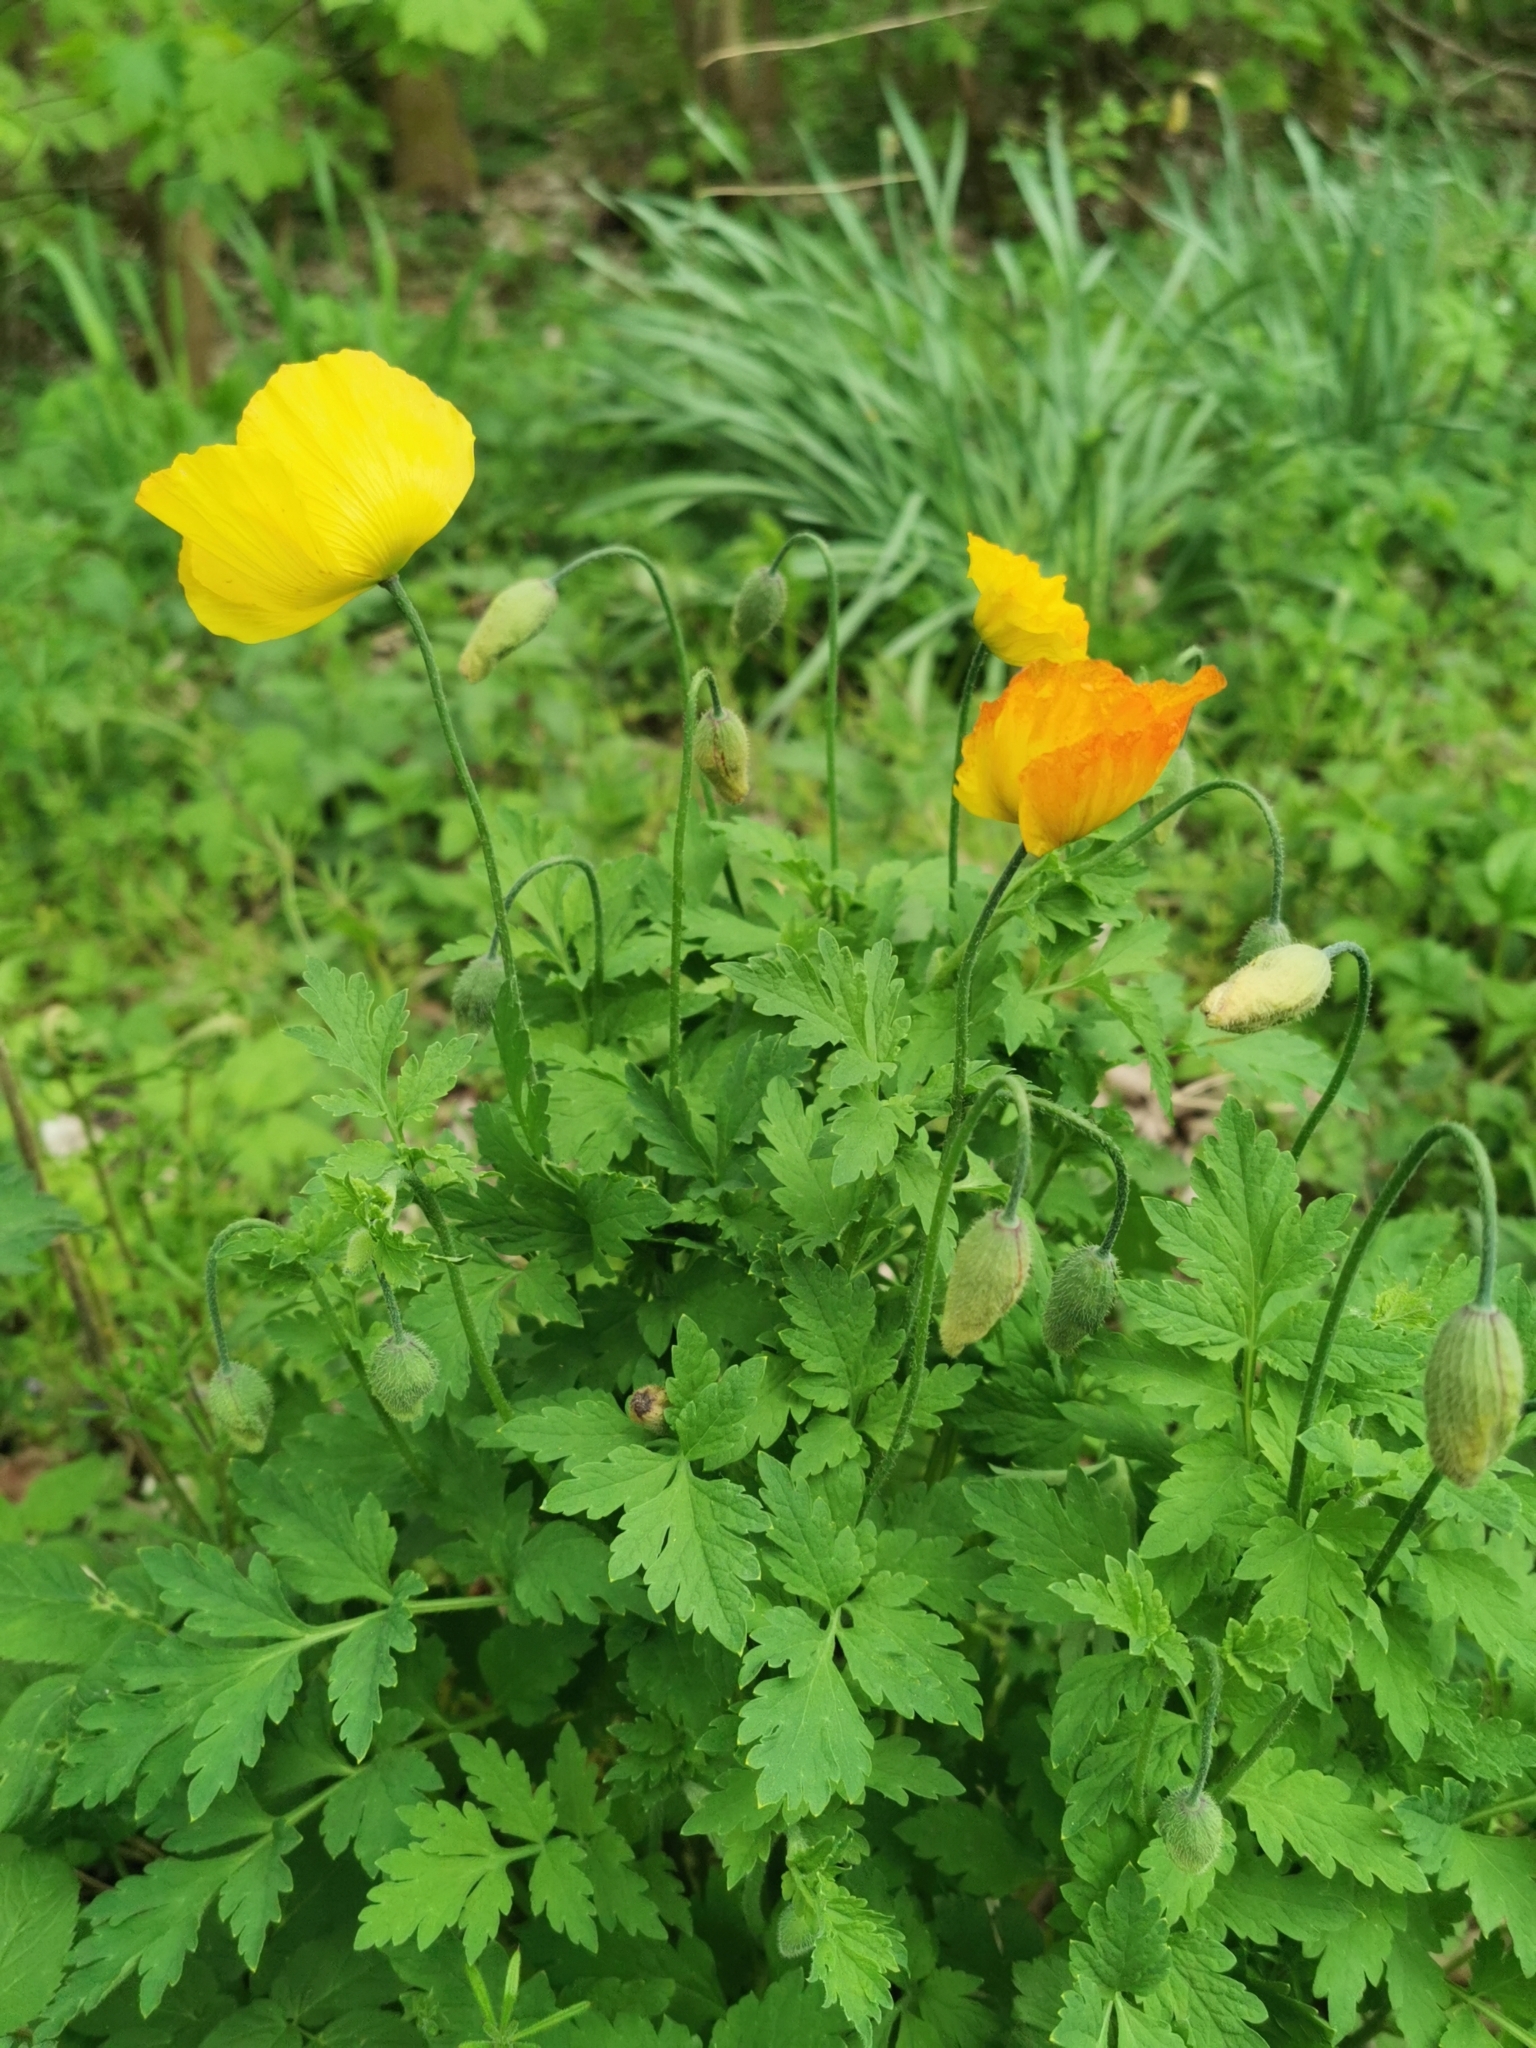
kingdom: Plantae
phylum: Tracheophyta
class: Magnoliopsida
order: Ranunculales
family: Papaveraceae
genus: Papaver
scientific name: Papaver cambricum
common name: Poppy
